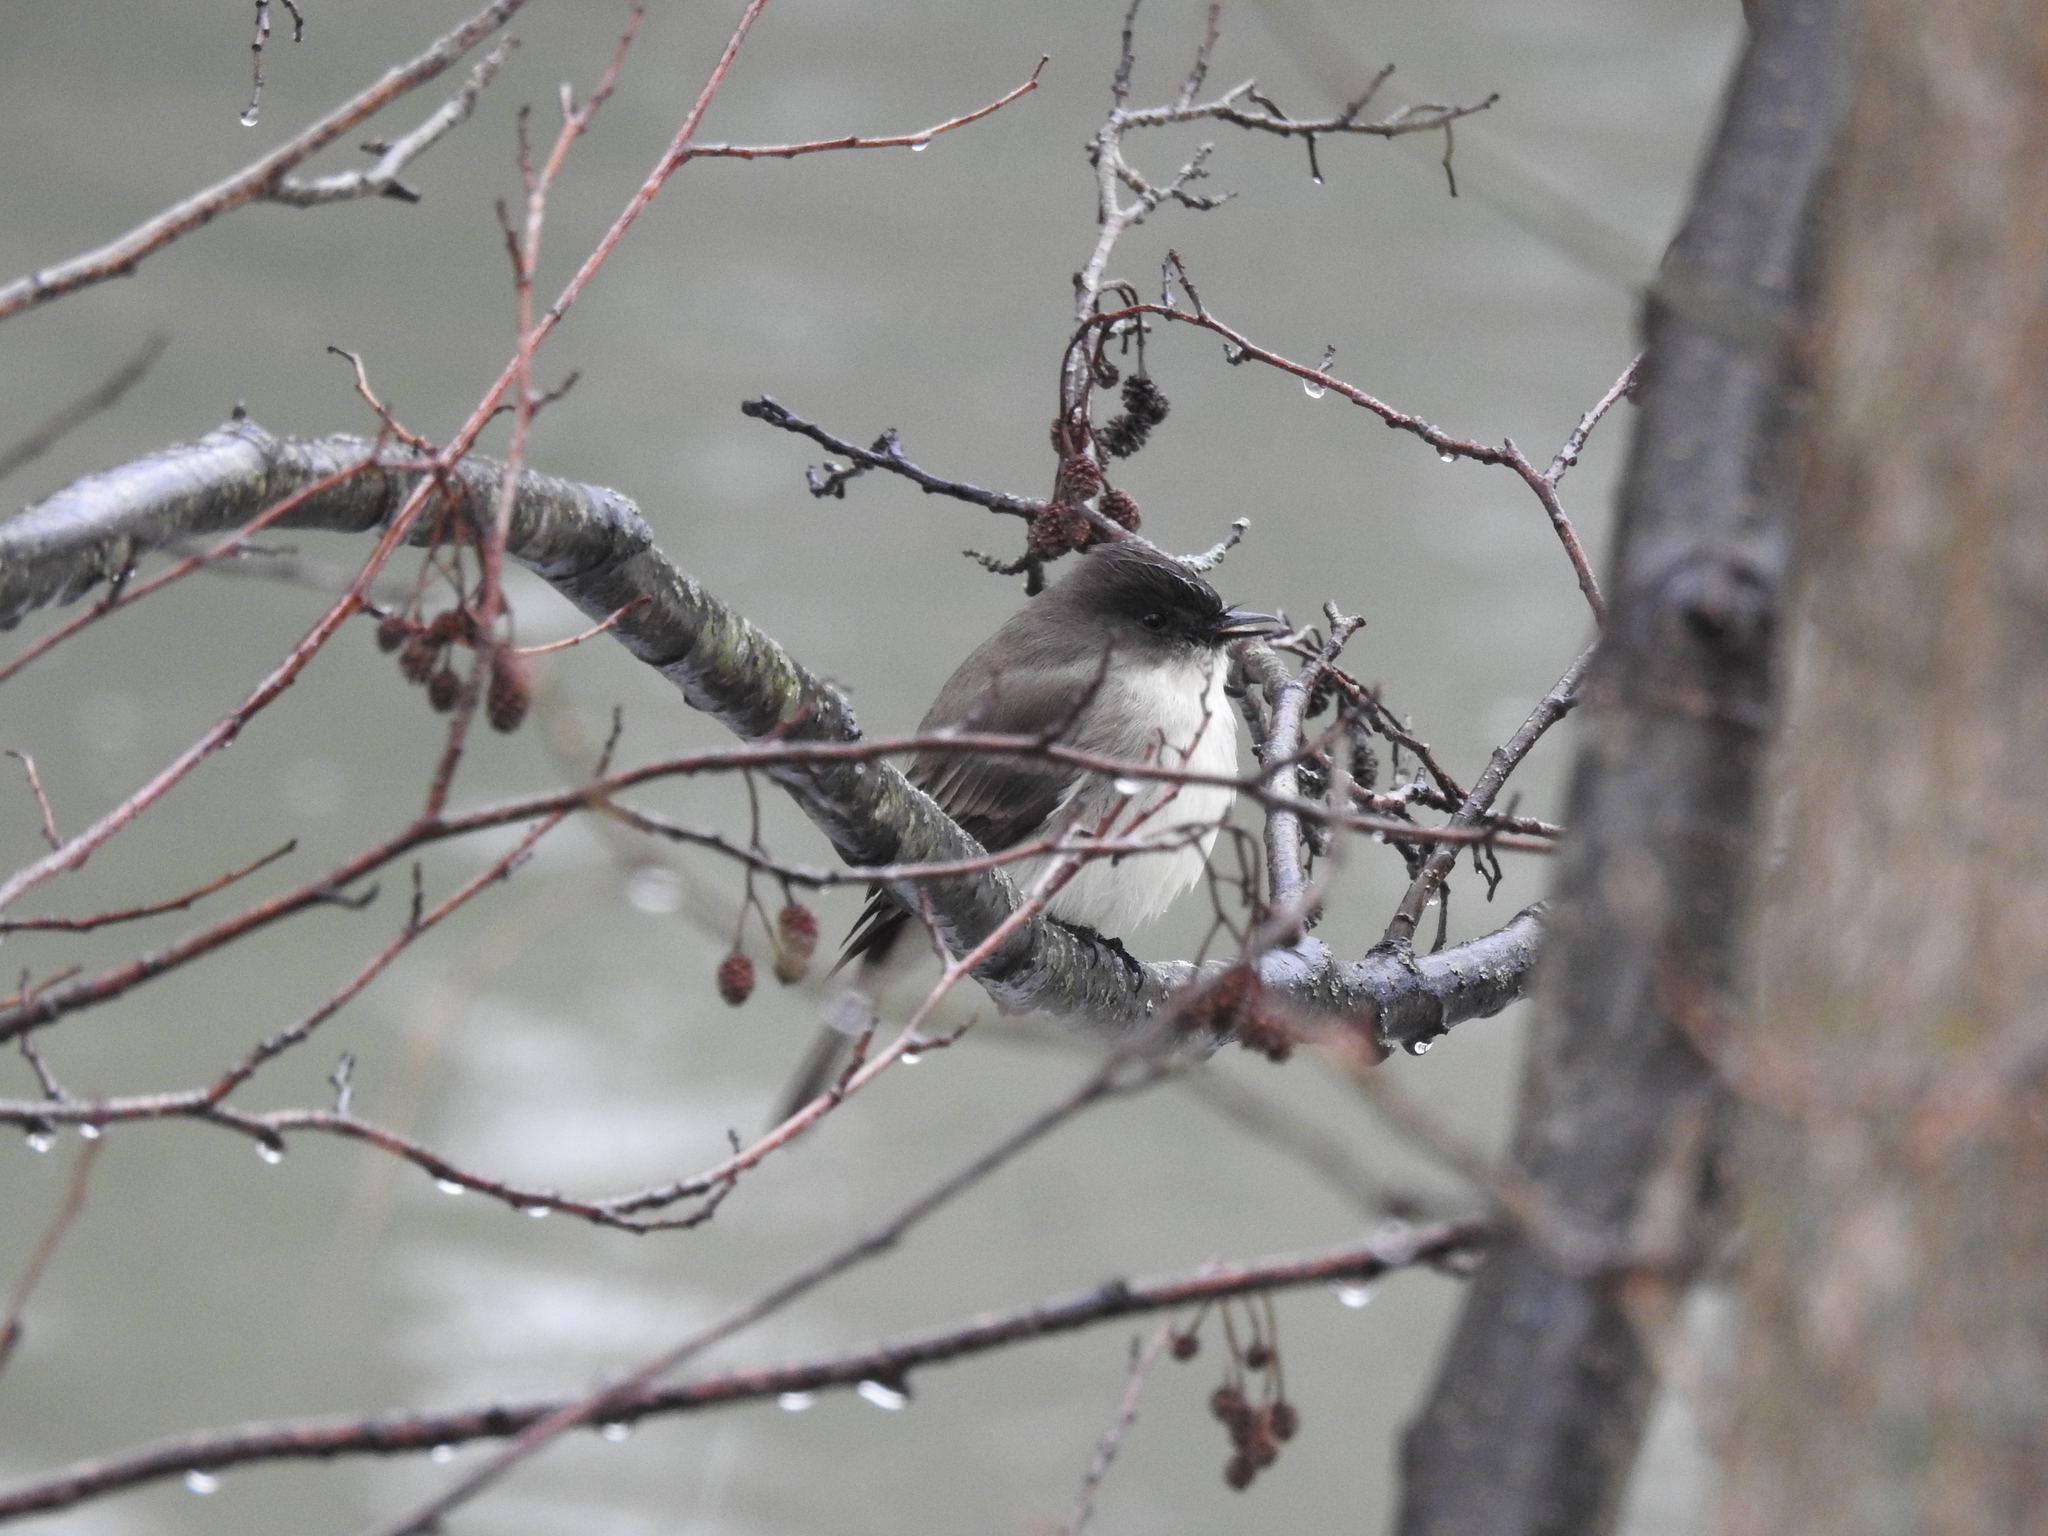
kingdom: Animalia
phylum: Chordata
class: Aves
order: Passeriformes
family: Tyrannidae
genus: Sayornis
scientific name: Sayornis phoebe
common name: Eastern phoebe
